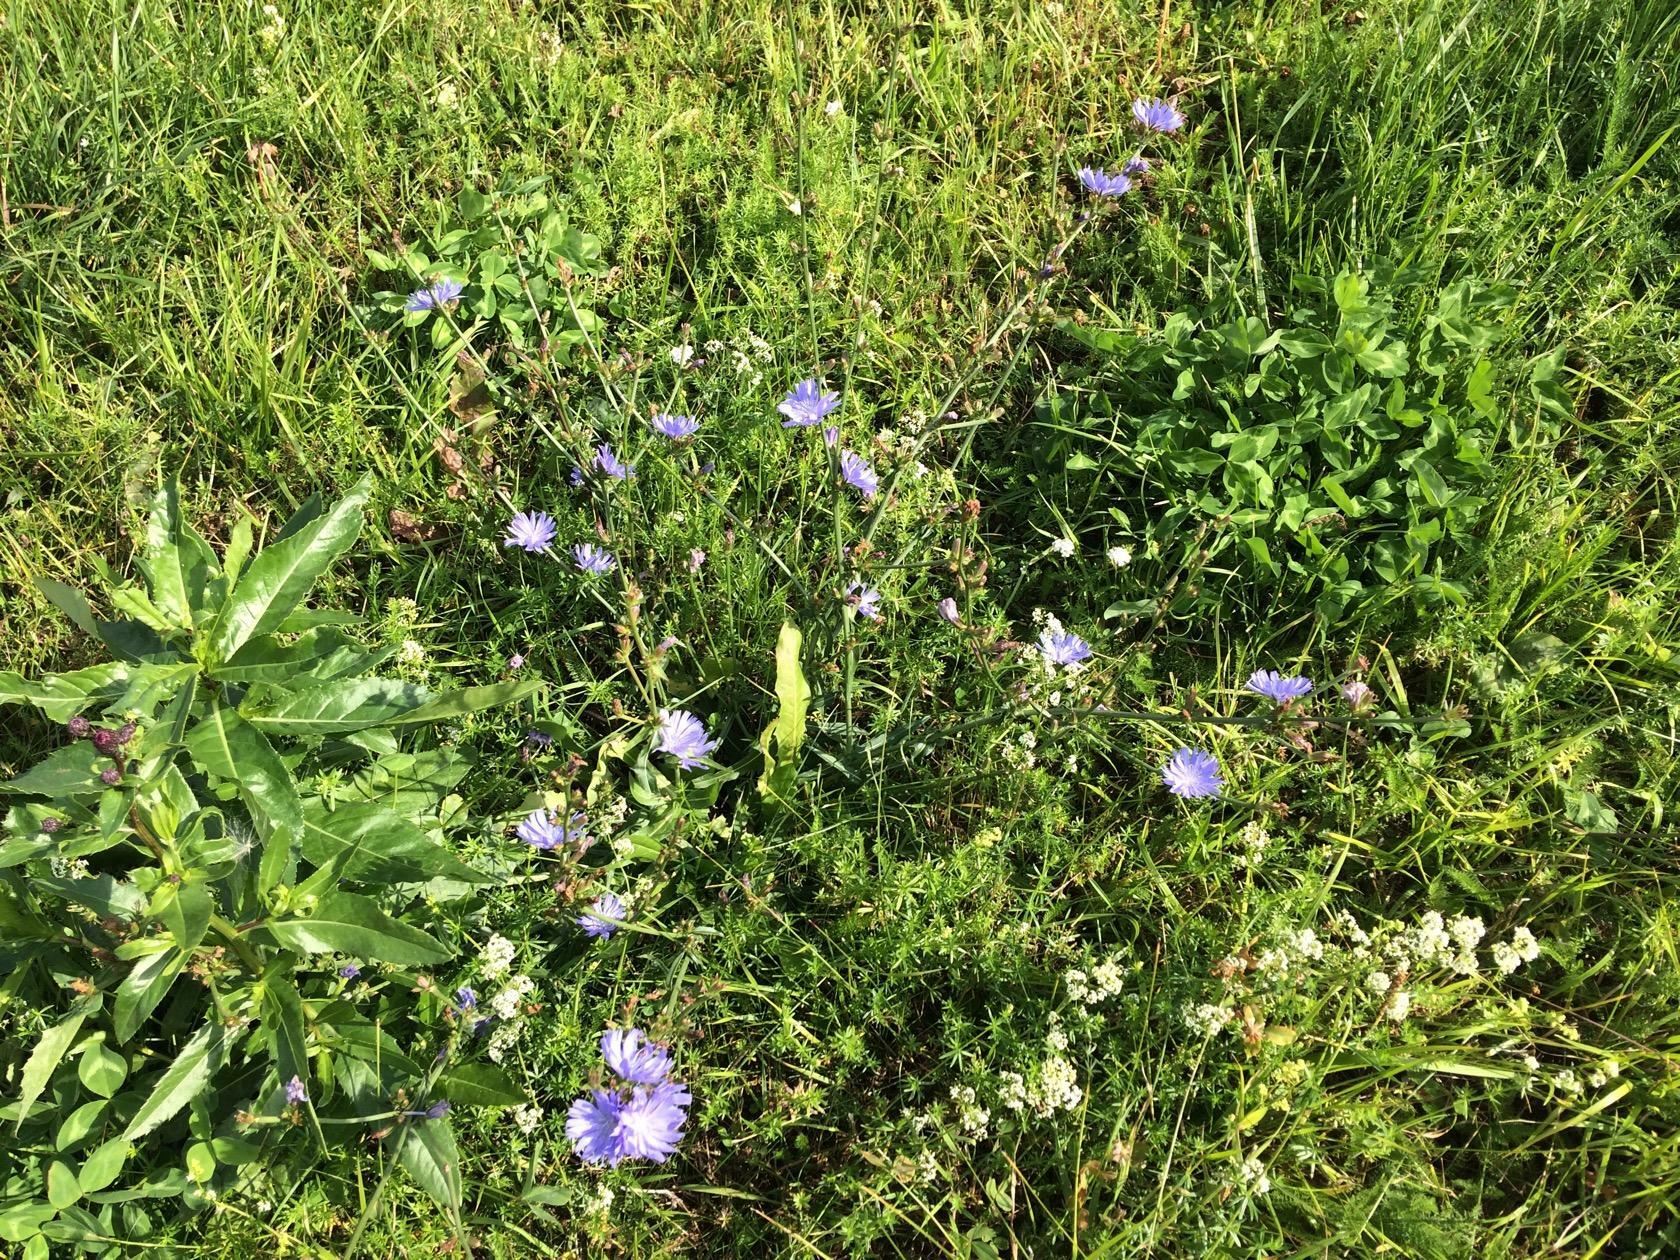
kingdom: Plantae
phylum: Tracheophyta
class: Magnoliopsida
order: Asterales
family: Asteraceae
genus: Cichorium
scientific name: Cichorium intybus
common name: Chicory
